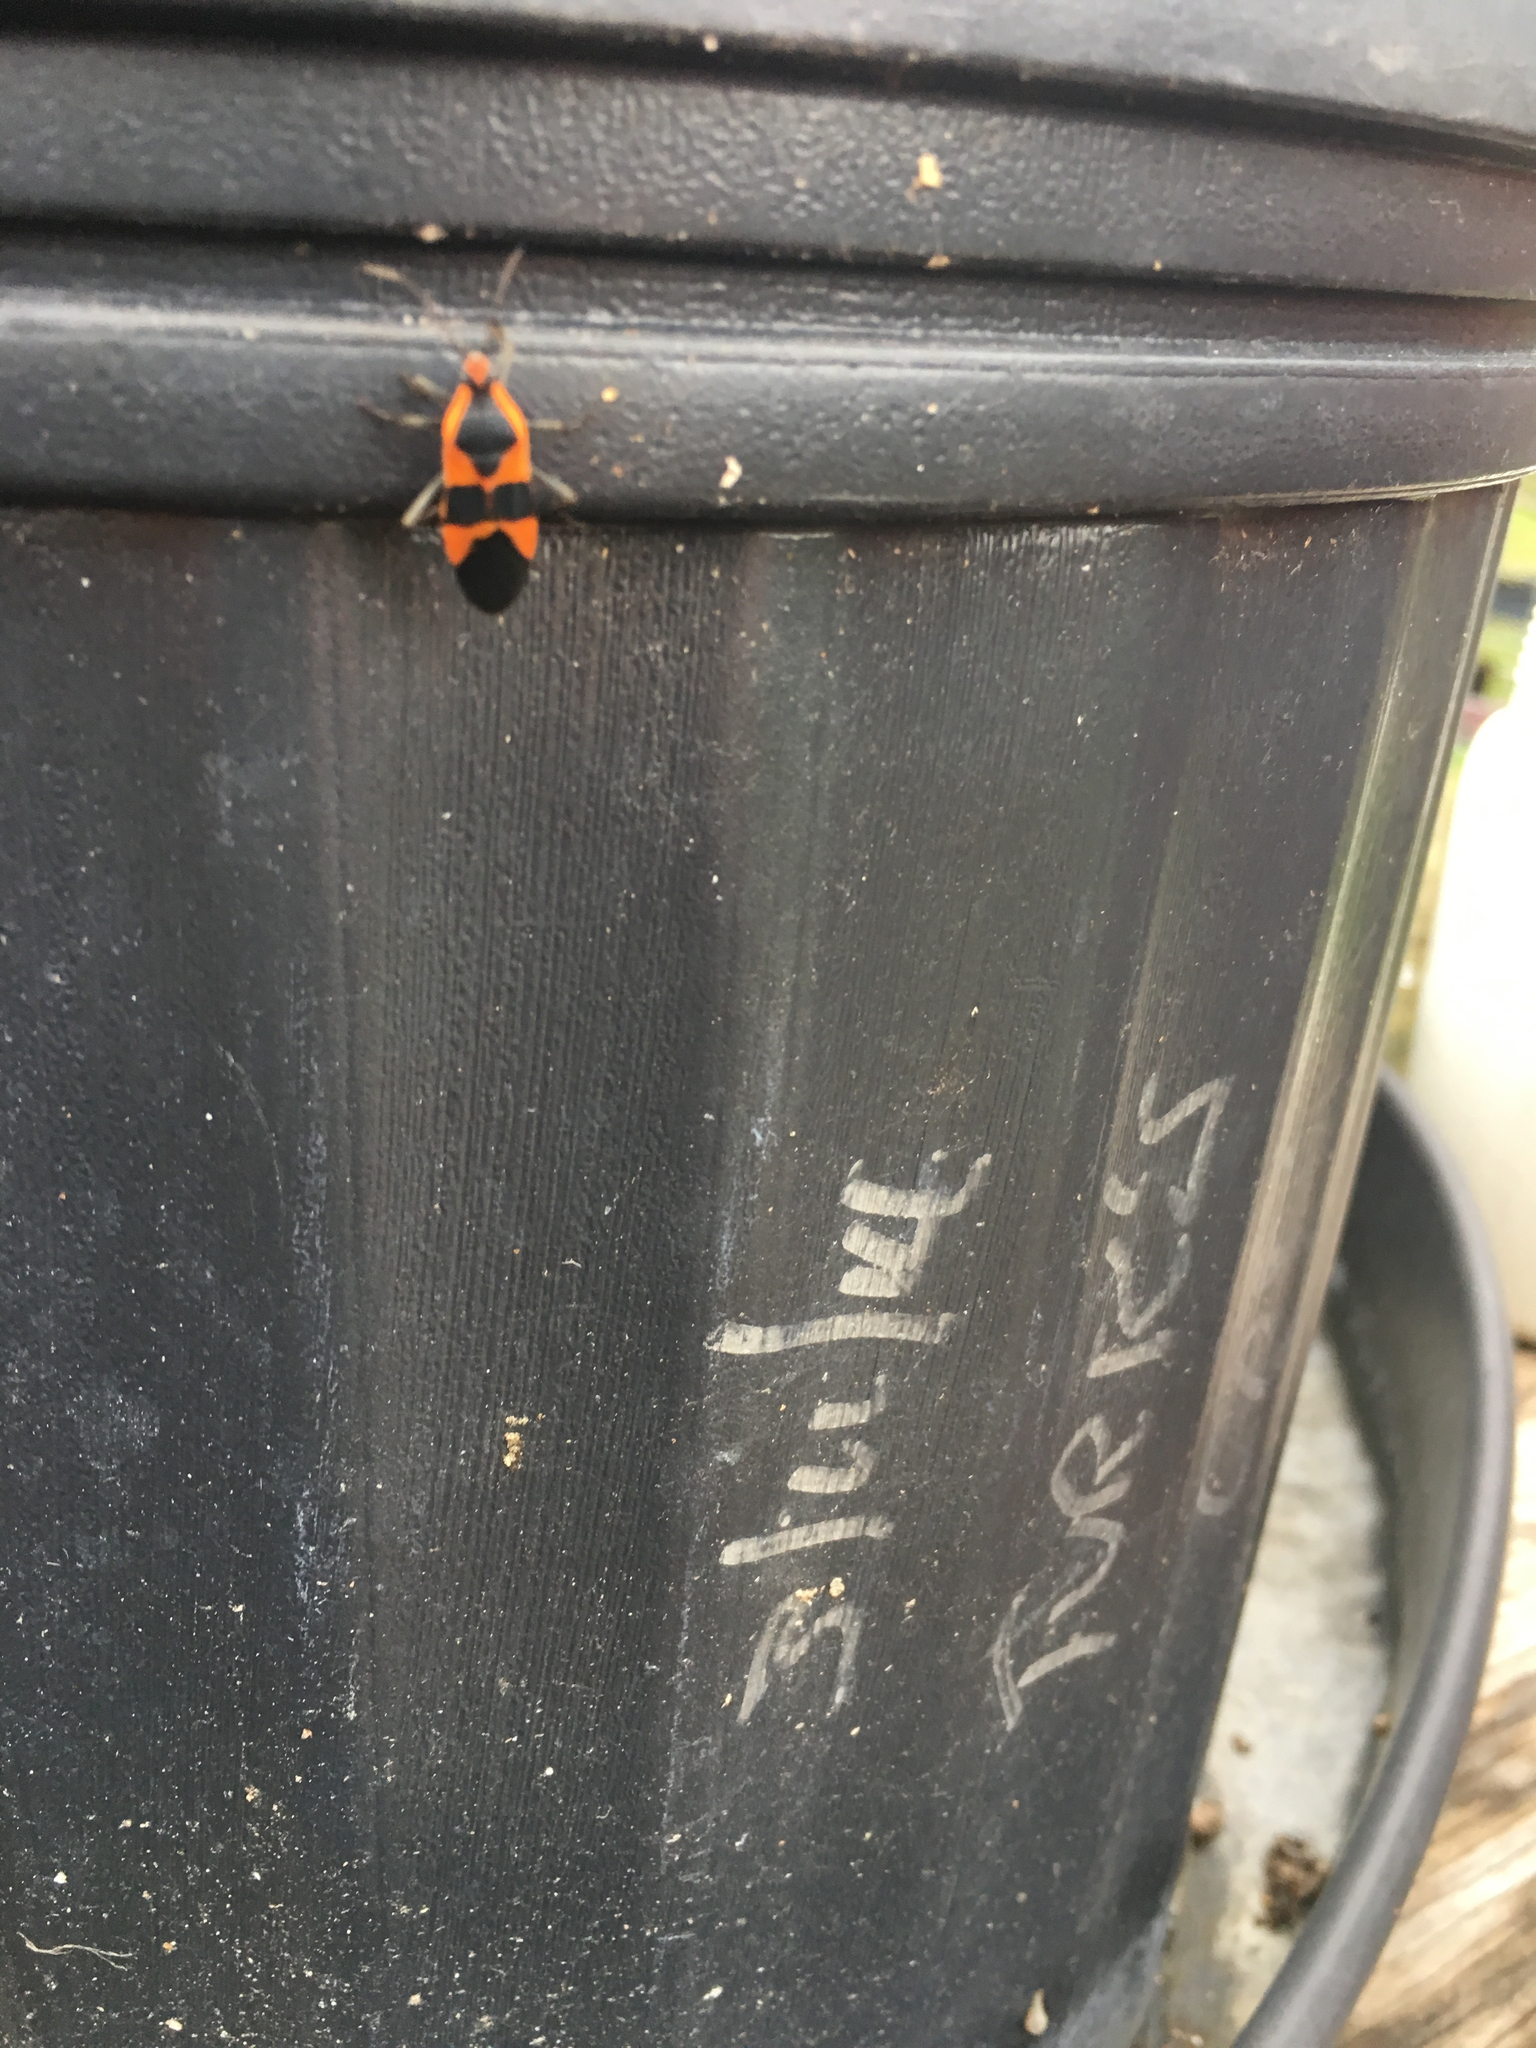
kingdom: Animalia
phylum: Arthropoda
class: Insecta
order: Hemiptera
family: Lygaeidae
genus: Oncopeltus
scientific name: Oncopeltus fasciatus
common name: Large milkweed bug
